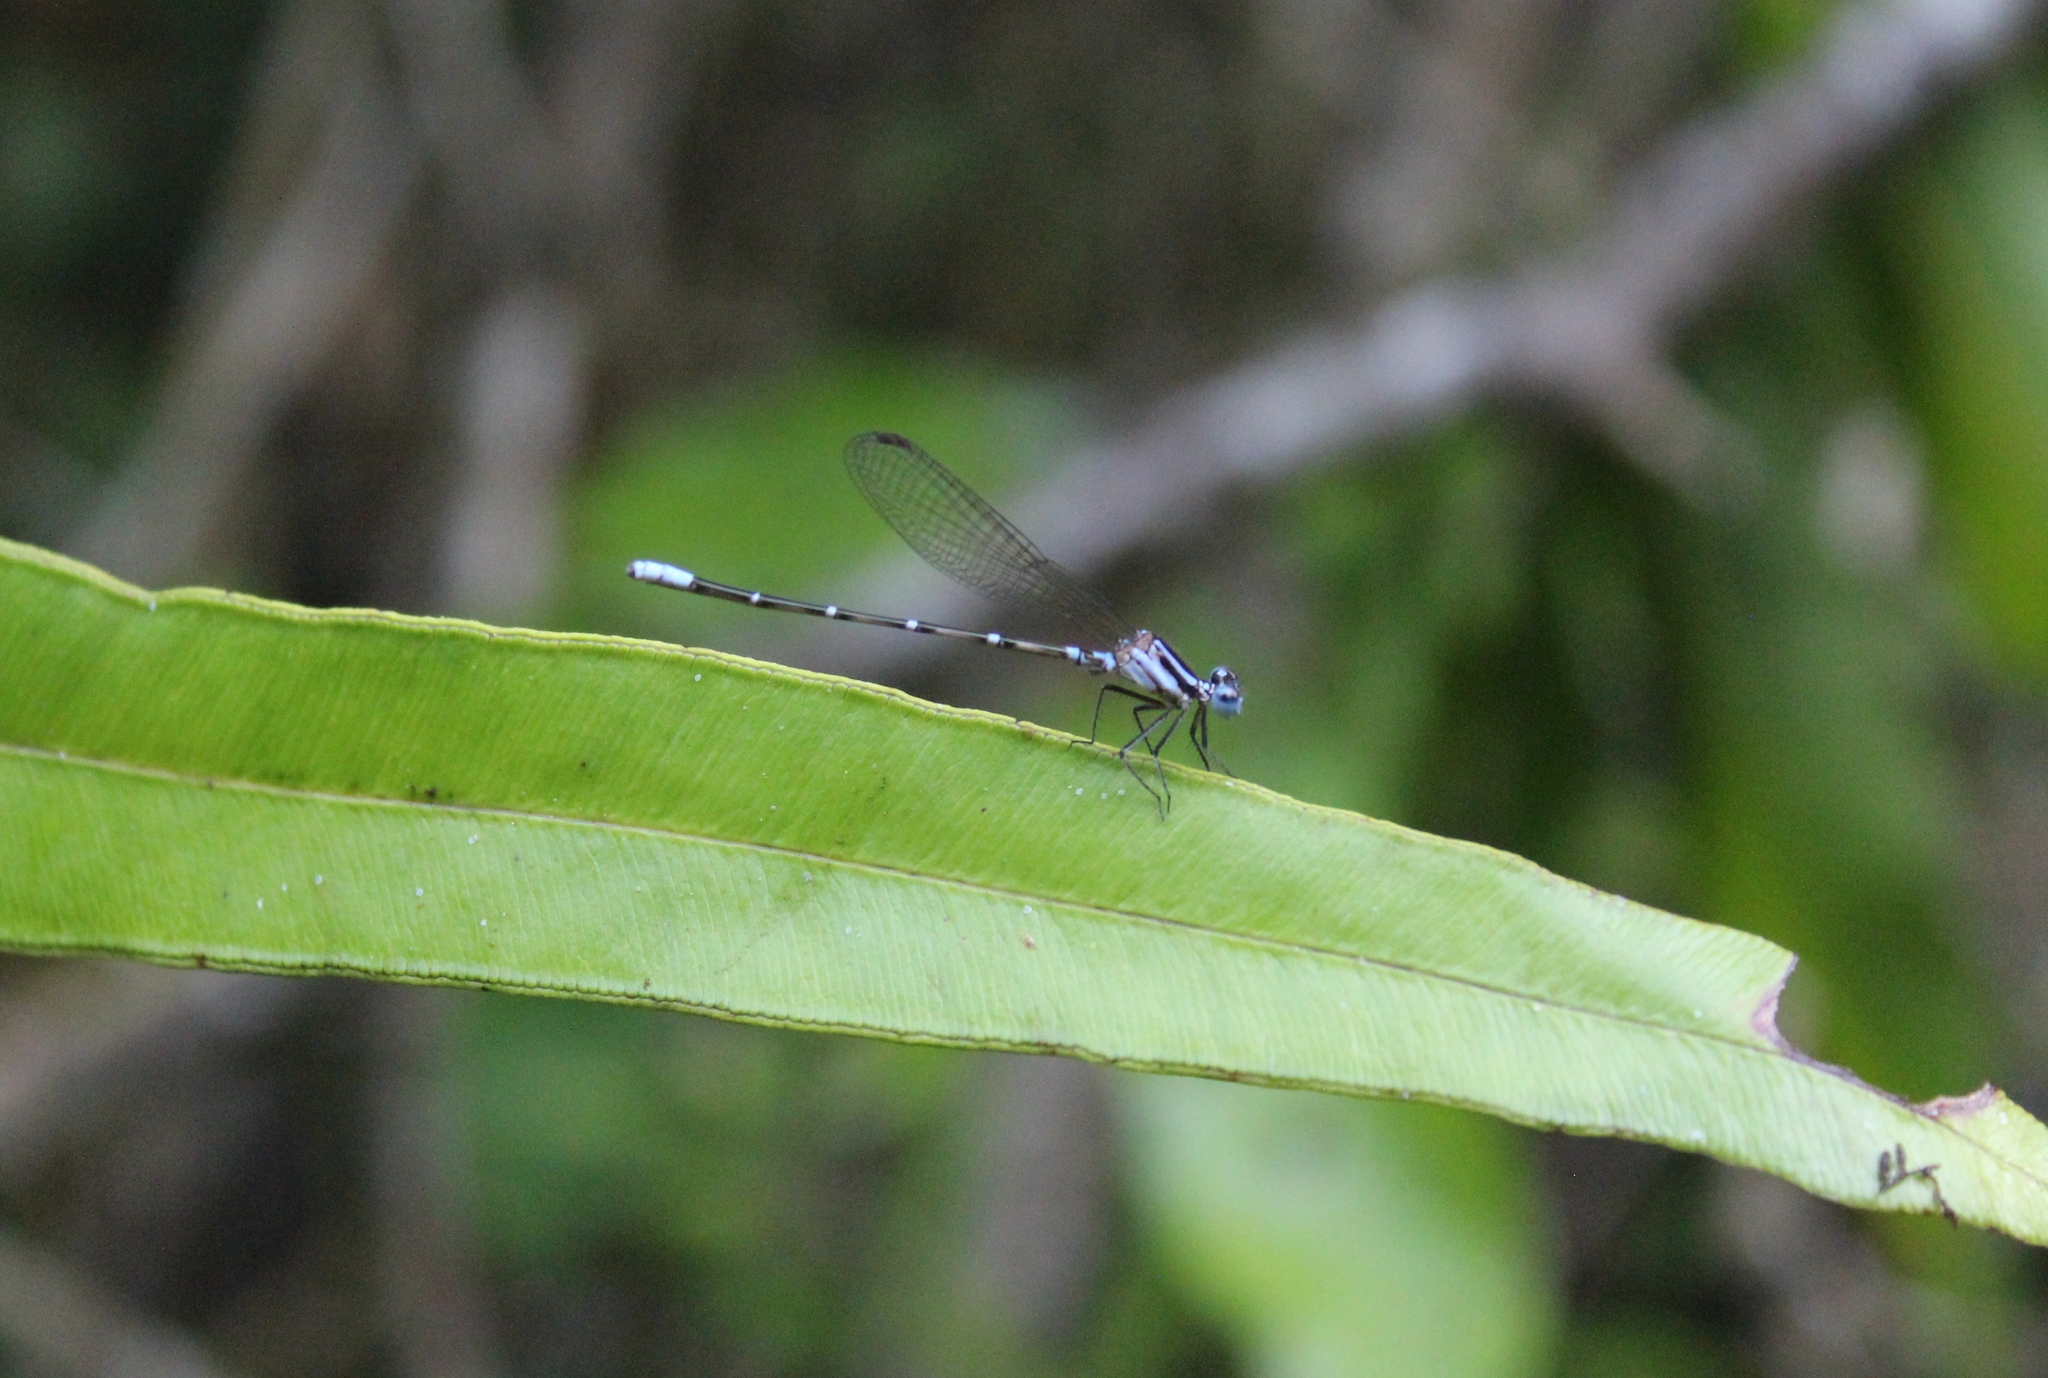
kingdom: Animalia
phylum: Arthropoda
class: Insecta
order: Odonata
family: Coenagrionidae
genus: Argia
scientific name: Argia gaumeri
